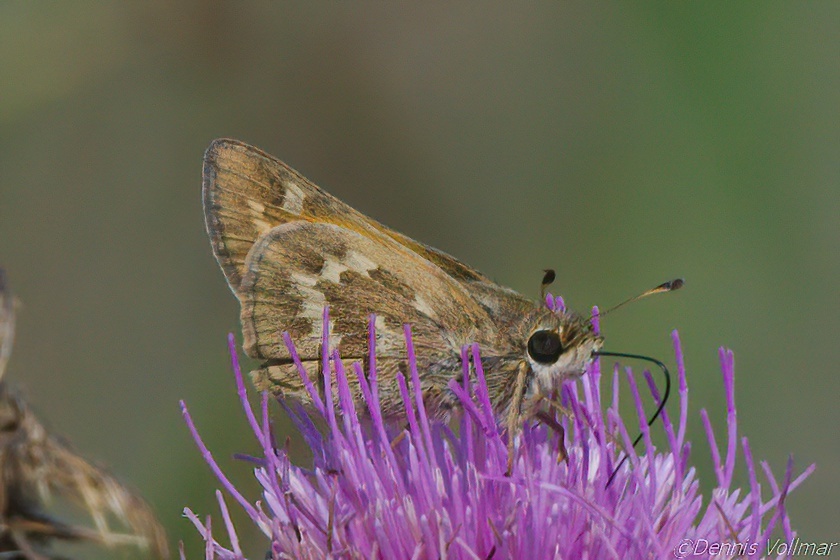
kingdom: Animalia
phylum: Arthropoda
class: Insecta
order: Lepidoptera
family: Hesperiidae
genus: Atalopedes
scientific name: Atalopedes
